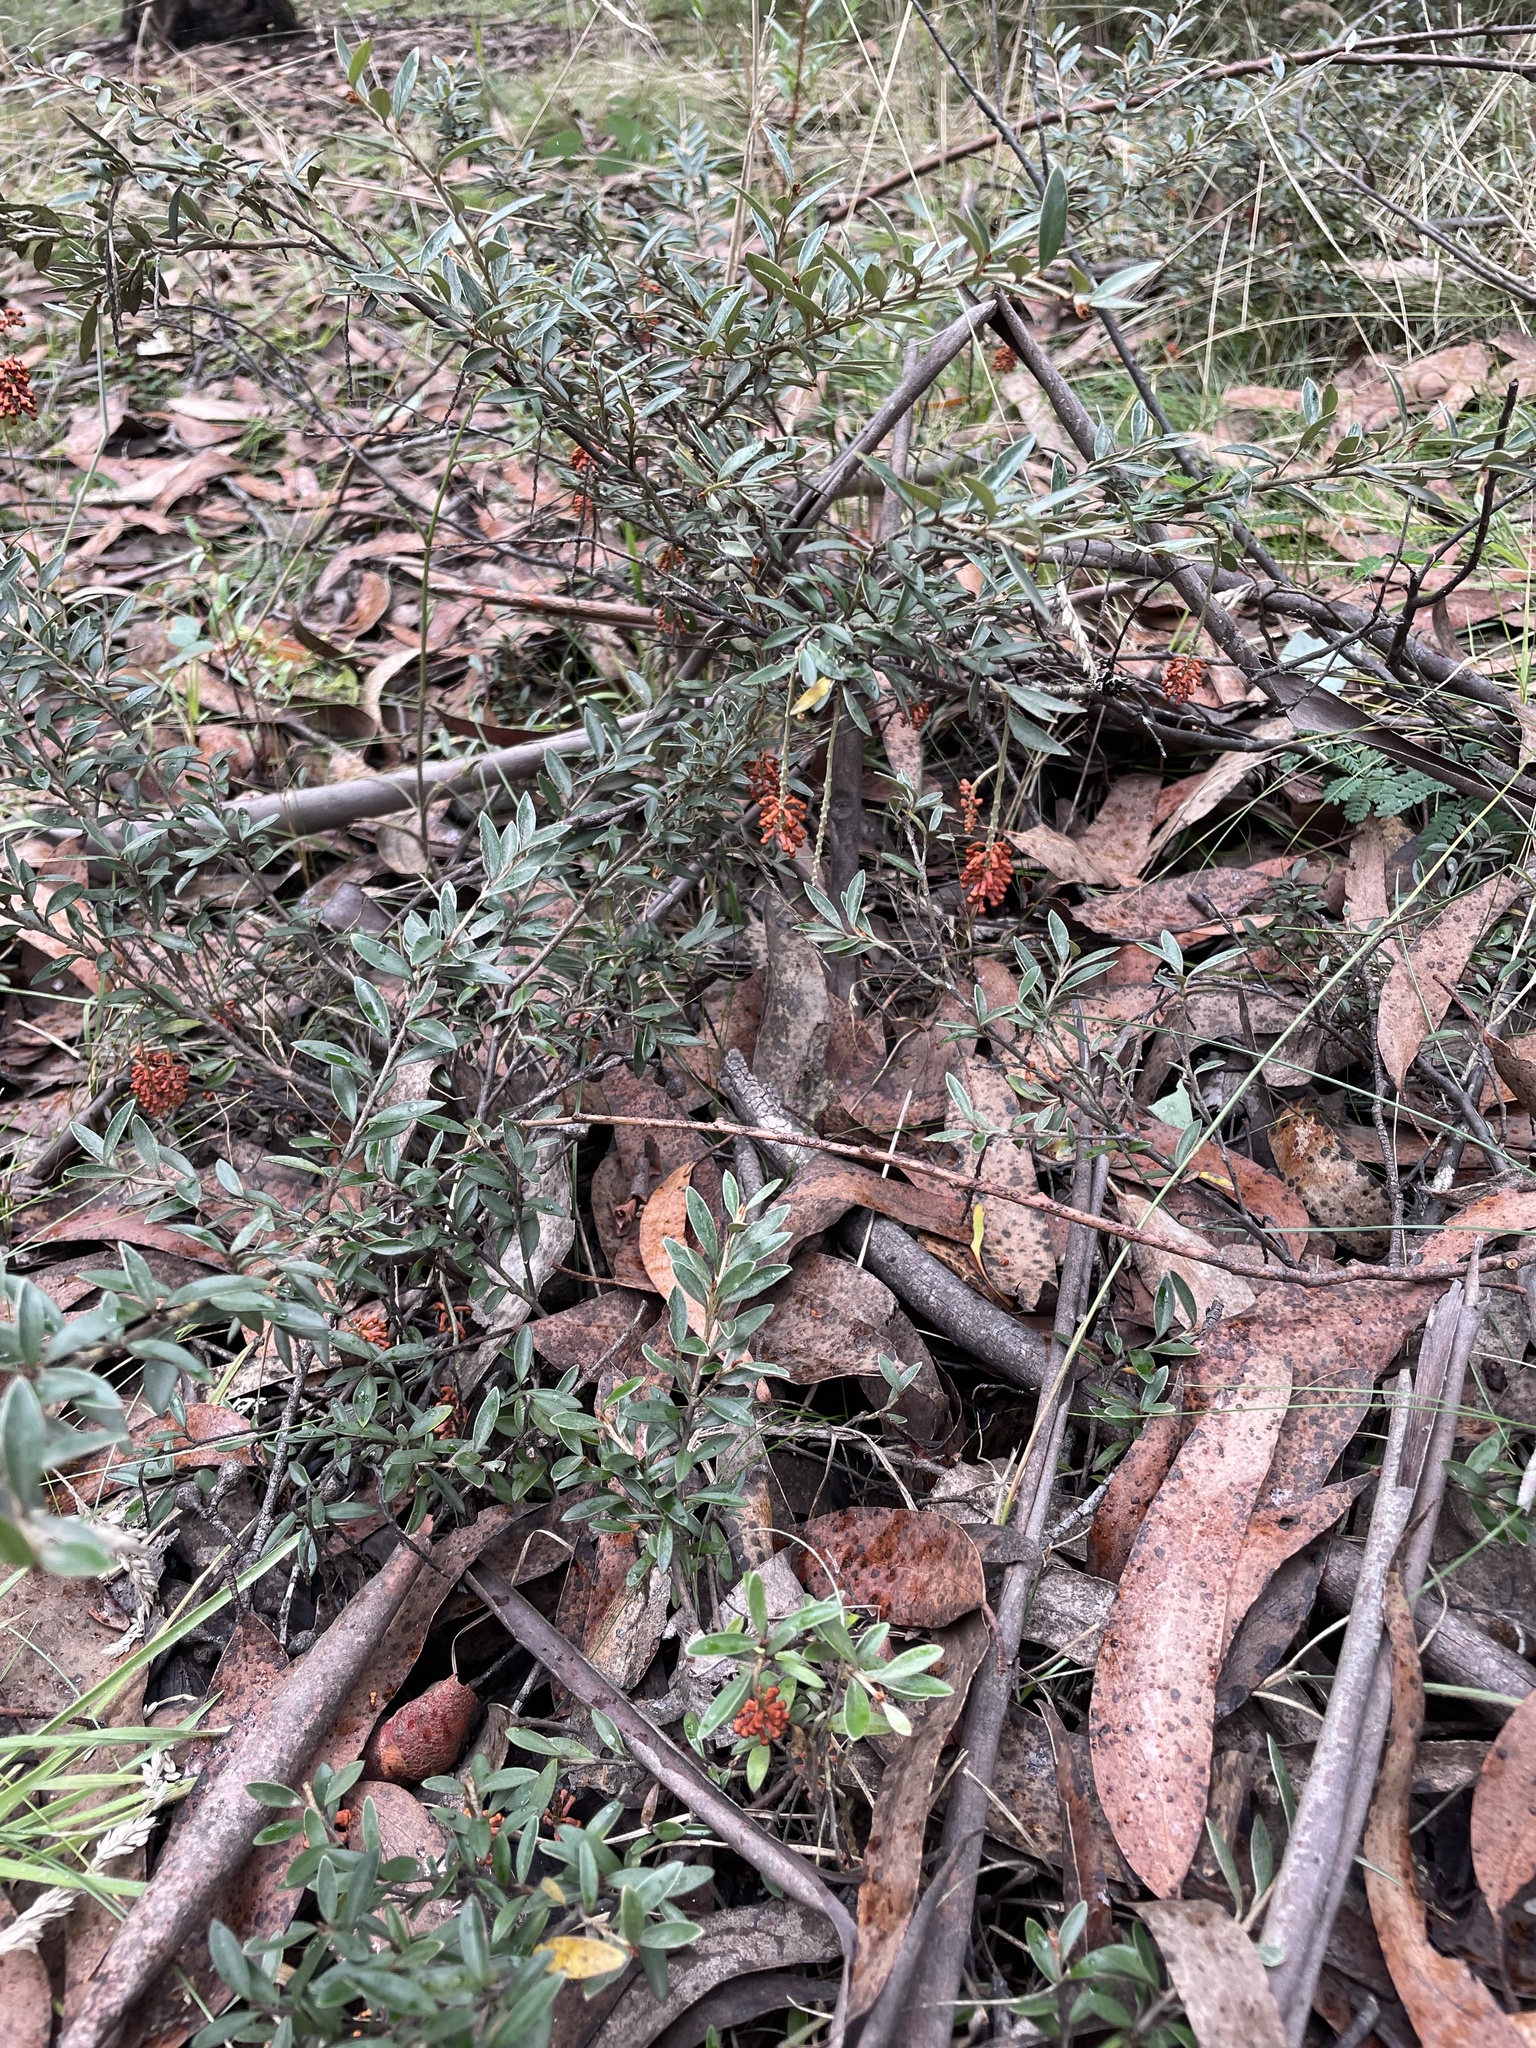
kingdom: Plantae
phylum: Tracheophyta
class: Magnoliopsida
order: Proteales
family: Proteaceae
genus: Grevillea
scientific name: Grevillea diminuta
